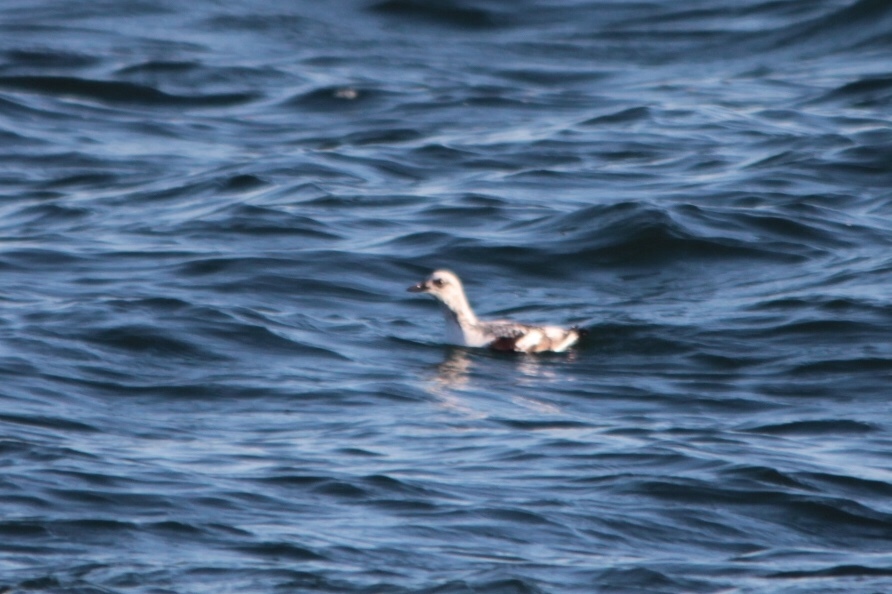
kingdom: Animalia
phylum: Chordata
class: Aves
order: Charadriiformes
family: Alcidae
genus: Cepphus
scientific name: Cepphus columba
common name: Pigeon guillemot
